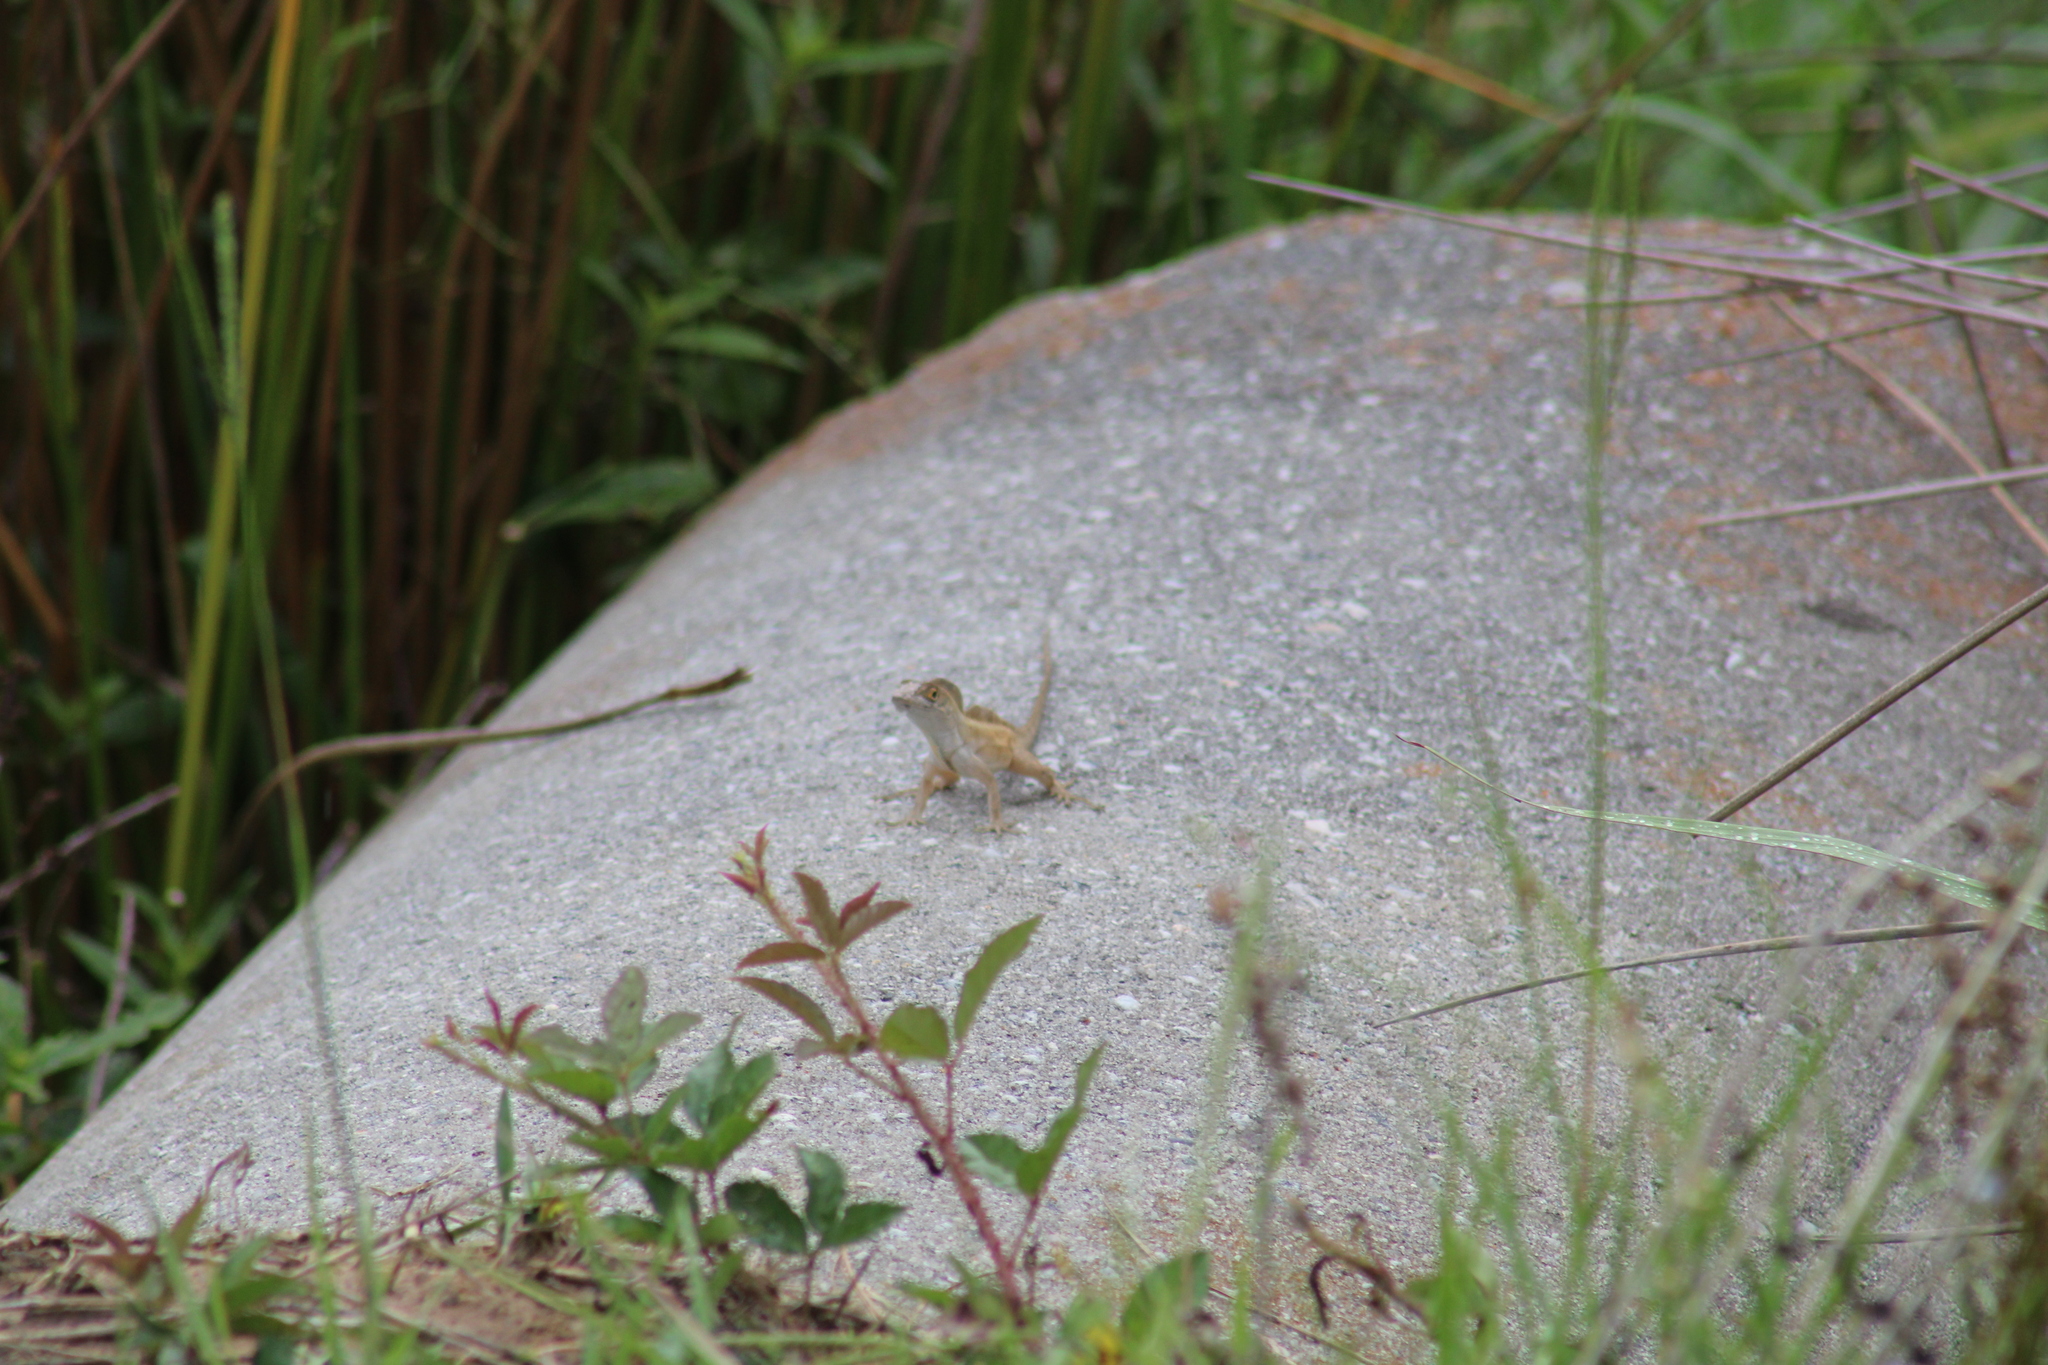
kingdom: Animalia
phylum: Chordata
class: Squamata
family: Dactyloidae
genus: Anolis
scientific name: Anolis sagrei
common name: Brown anole
